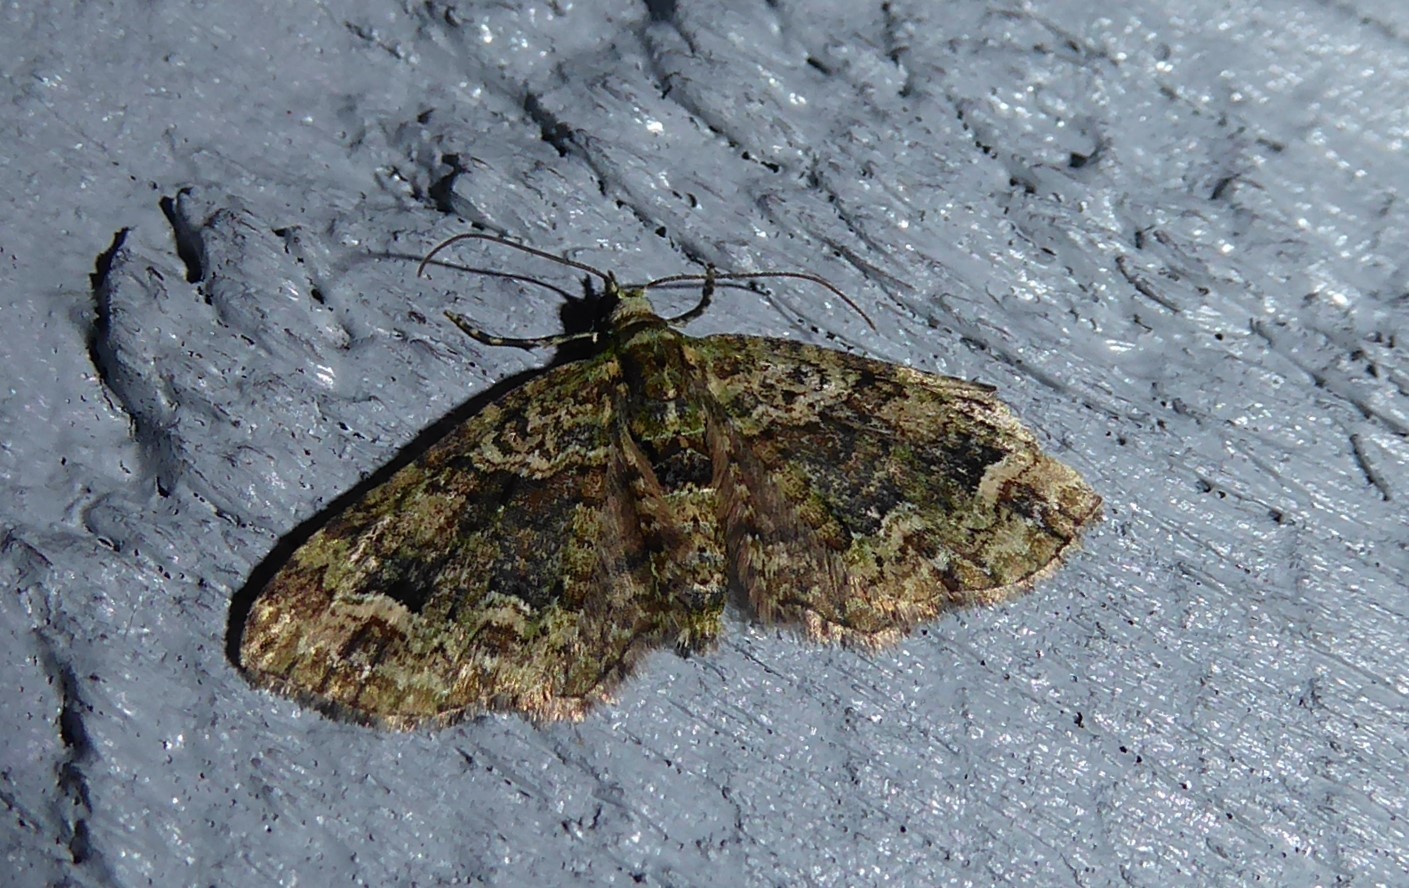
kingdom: Animalia
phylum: Arthropoda
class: Insecta
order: Lepidoptera
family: Geometridae
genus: Idaea
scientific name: Idaea mutanda
